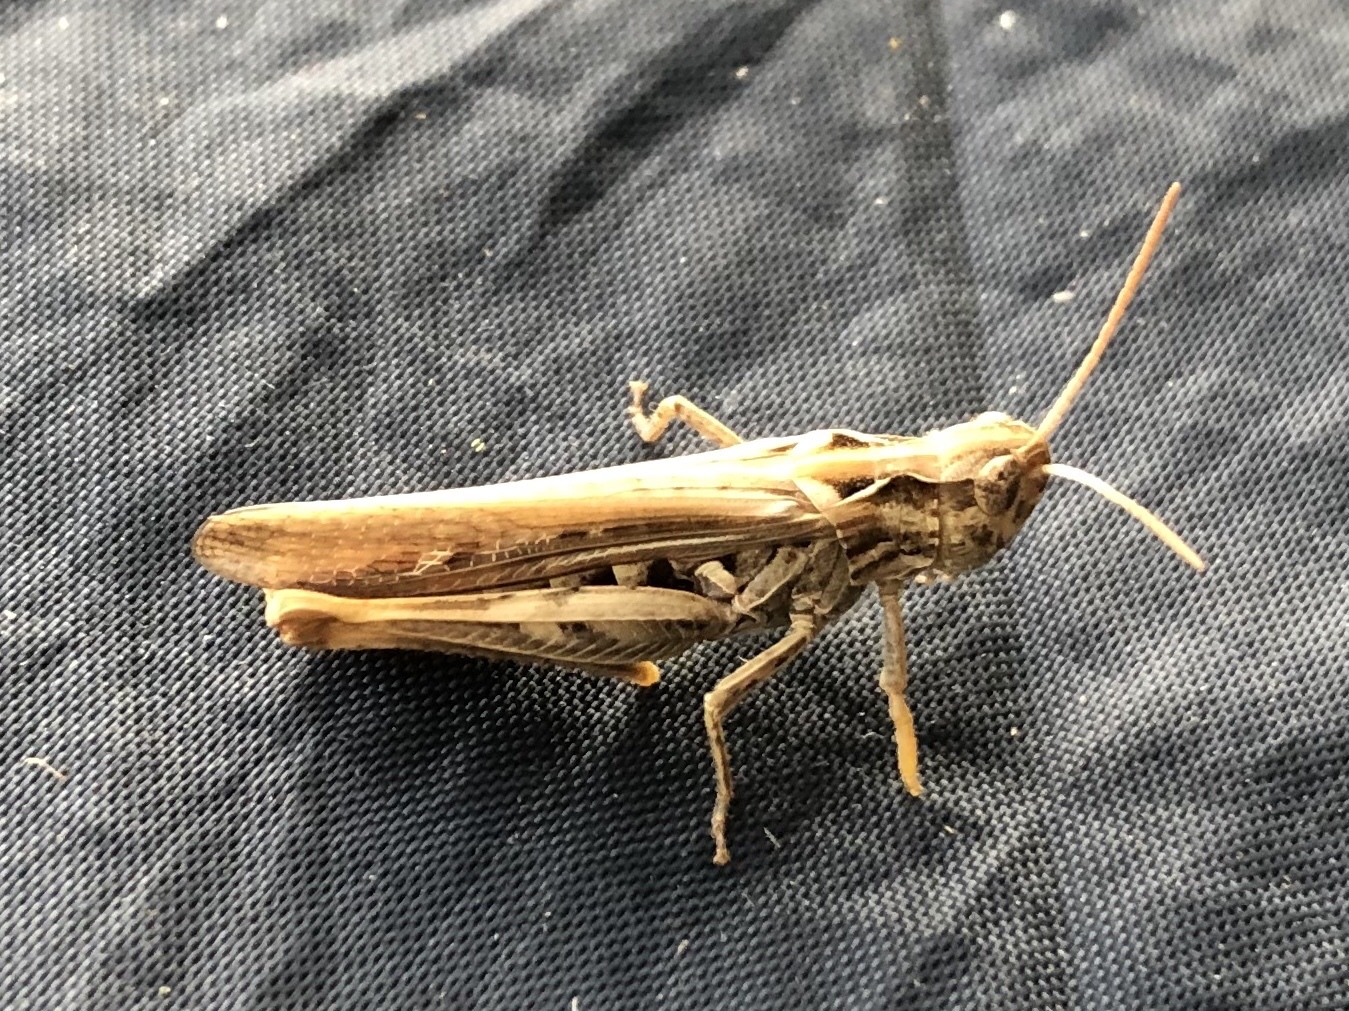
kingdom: Animalia
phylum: Arthropoda
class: Insecta
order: Orthoptera
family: Acrididae
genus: Chorthippus
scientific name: Chorthippus biguttulus
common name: Bow-winged grasshopper
